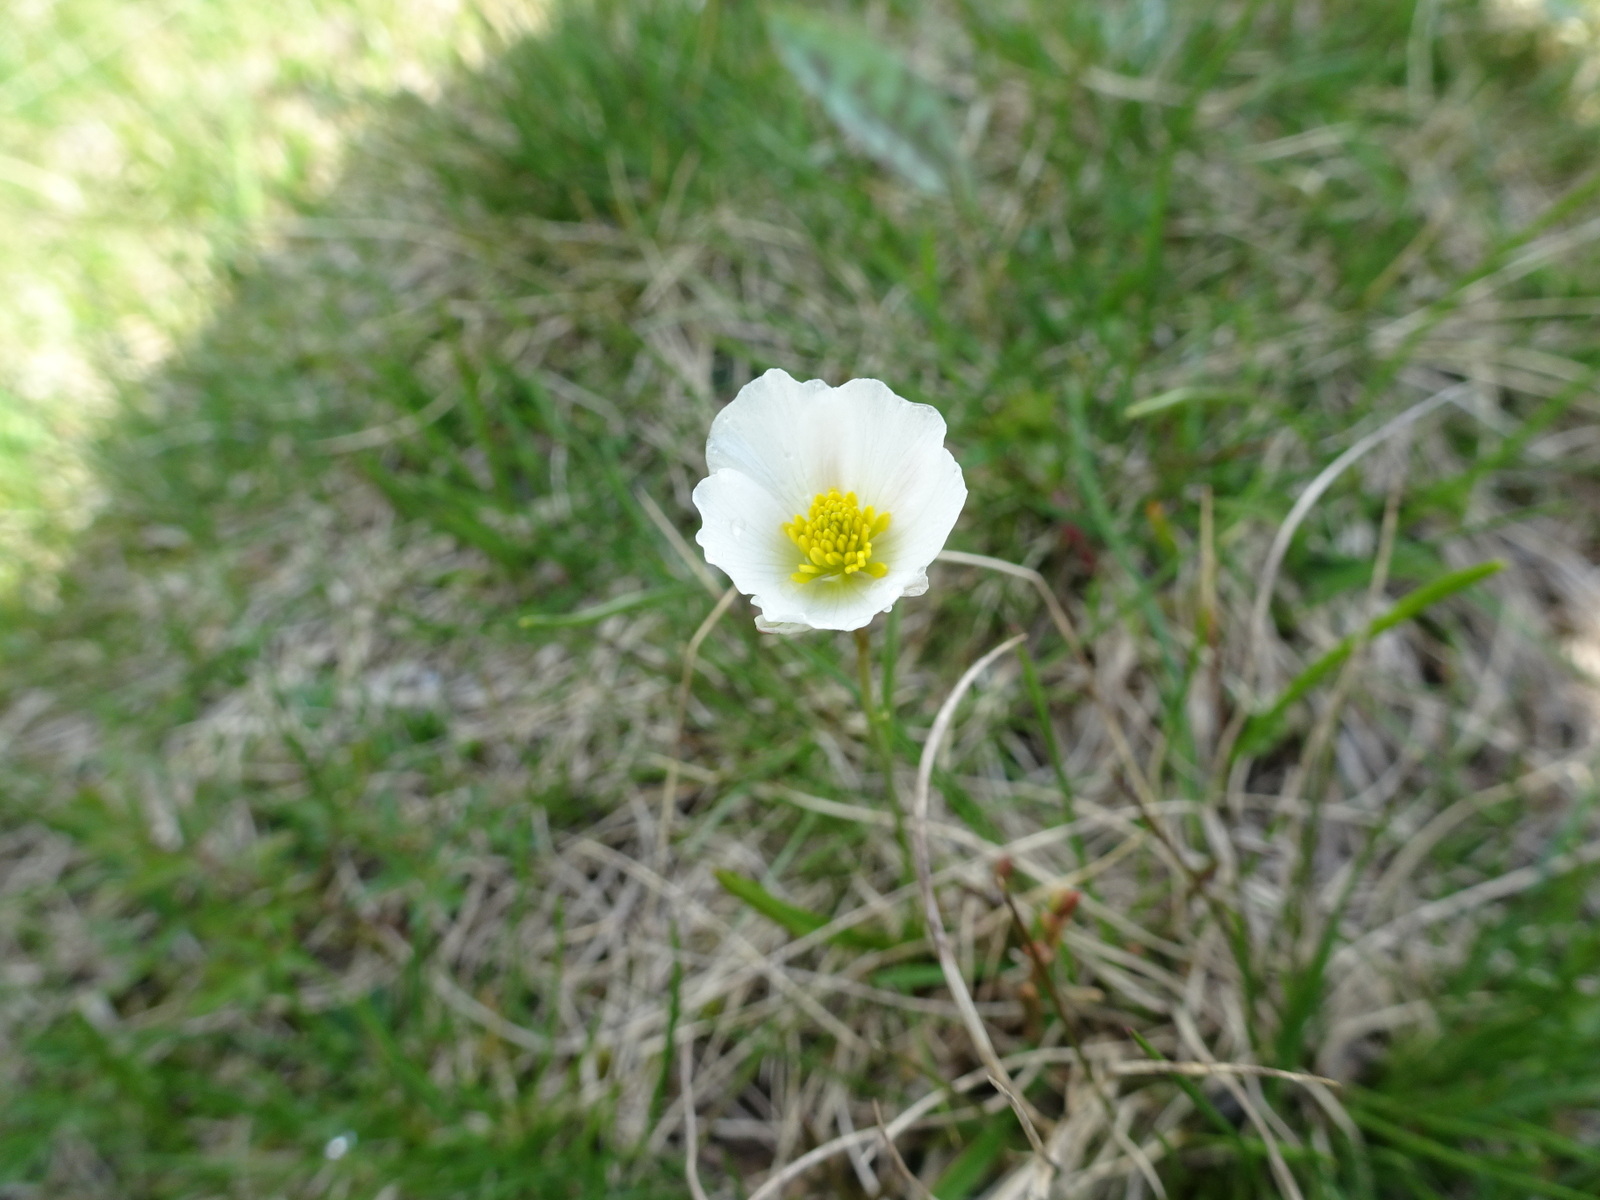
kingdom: Plantae
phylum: Tracheophyta
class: Magnoliopsida
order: Ranunculales
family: Ranunculaceae
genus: Ranunculus
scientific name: Ranunculus pyrenaeus
